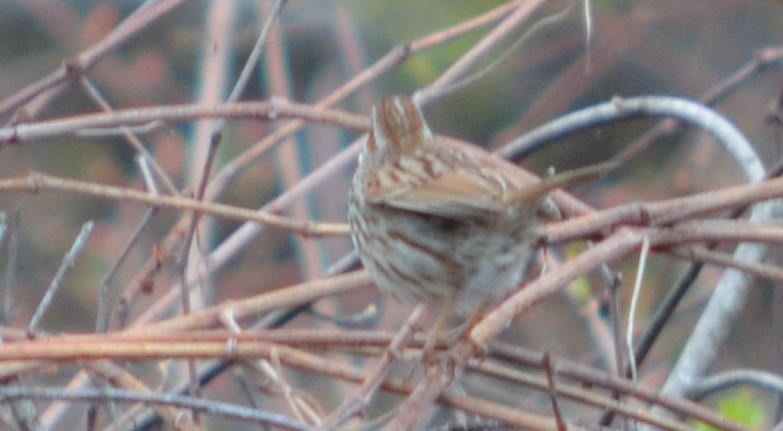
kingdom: Animalia
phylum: Chordata
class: Aves
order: Passeriformes
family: Passerellidae
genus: Melospiza
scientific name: Melospiza melodia
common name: Song sparrow
